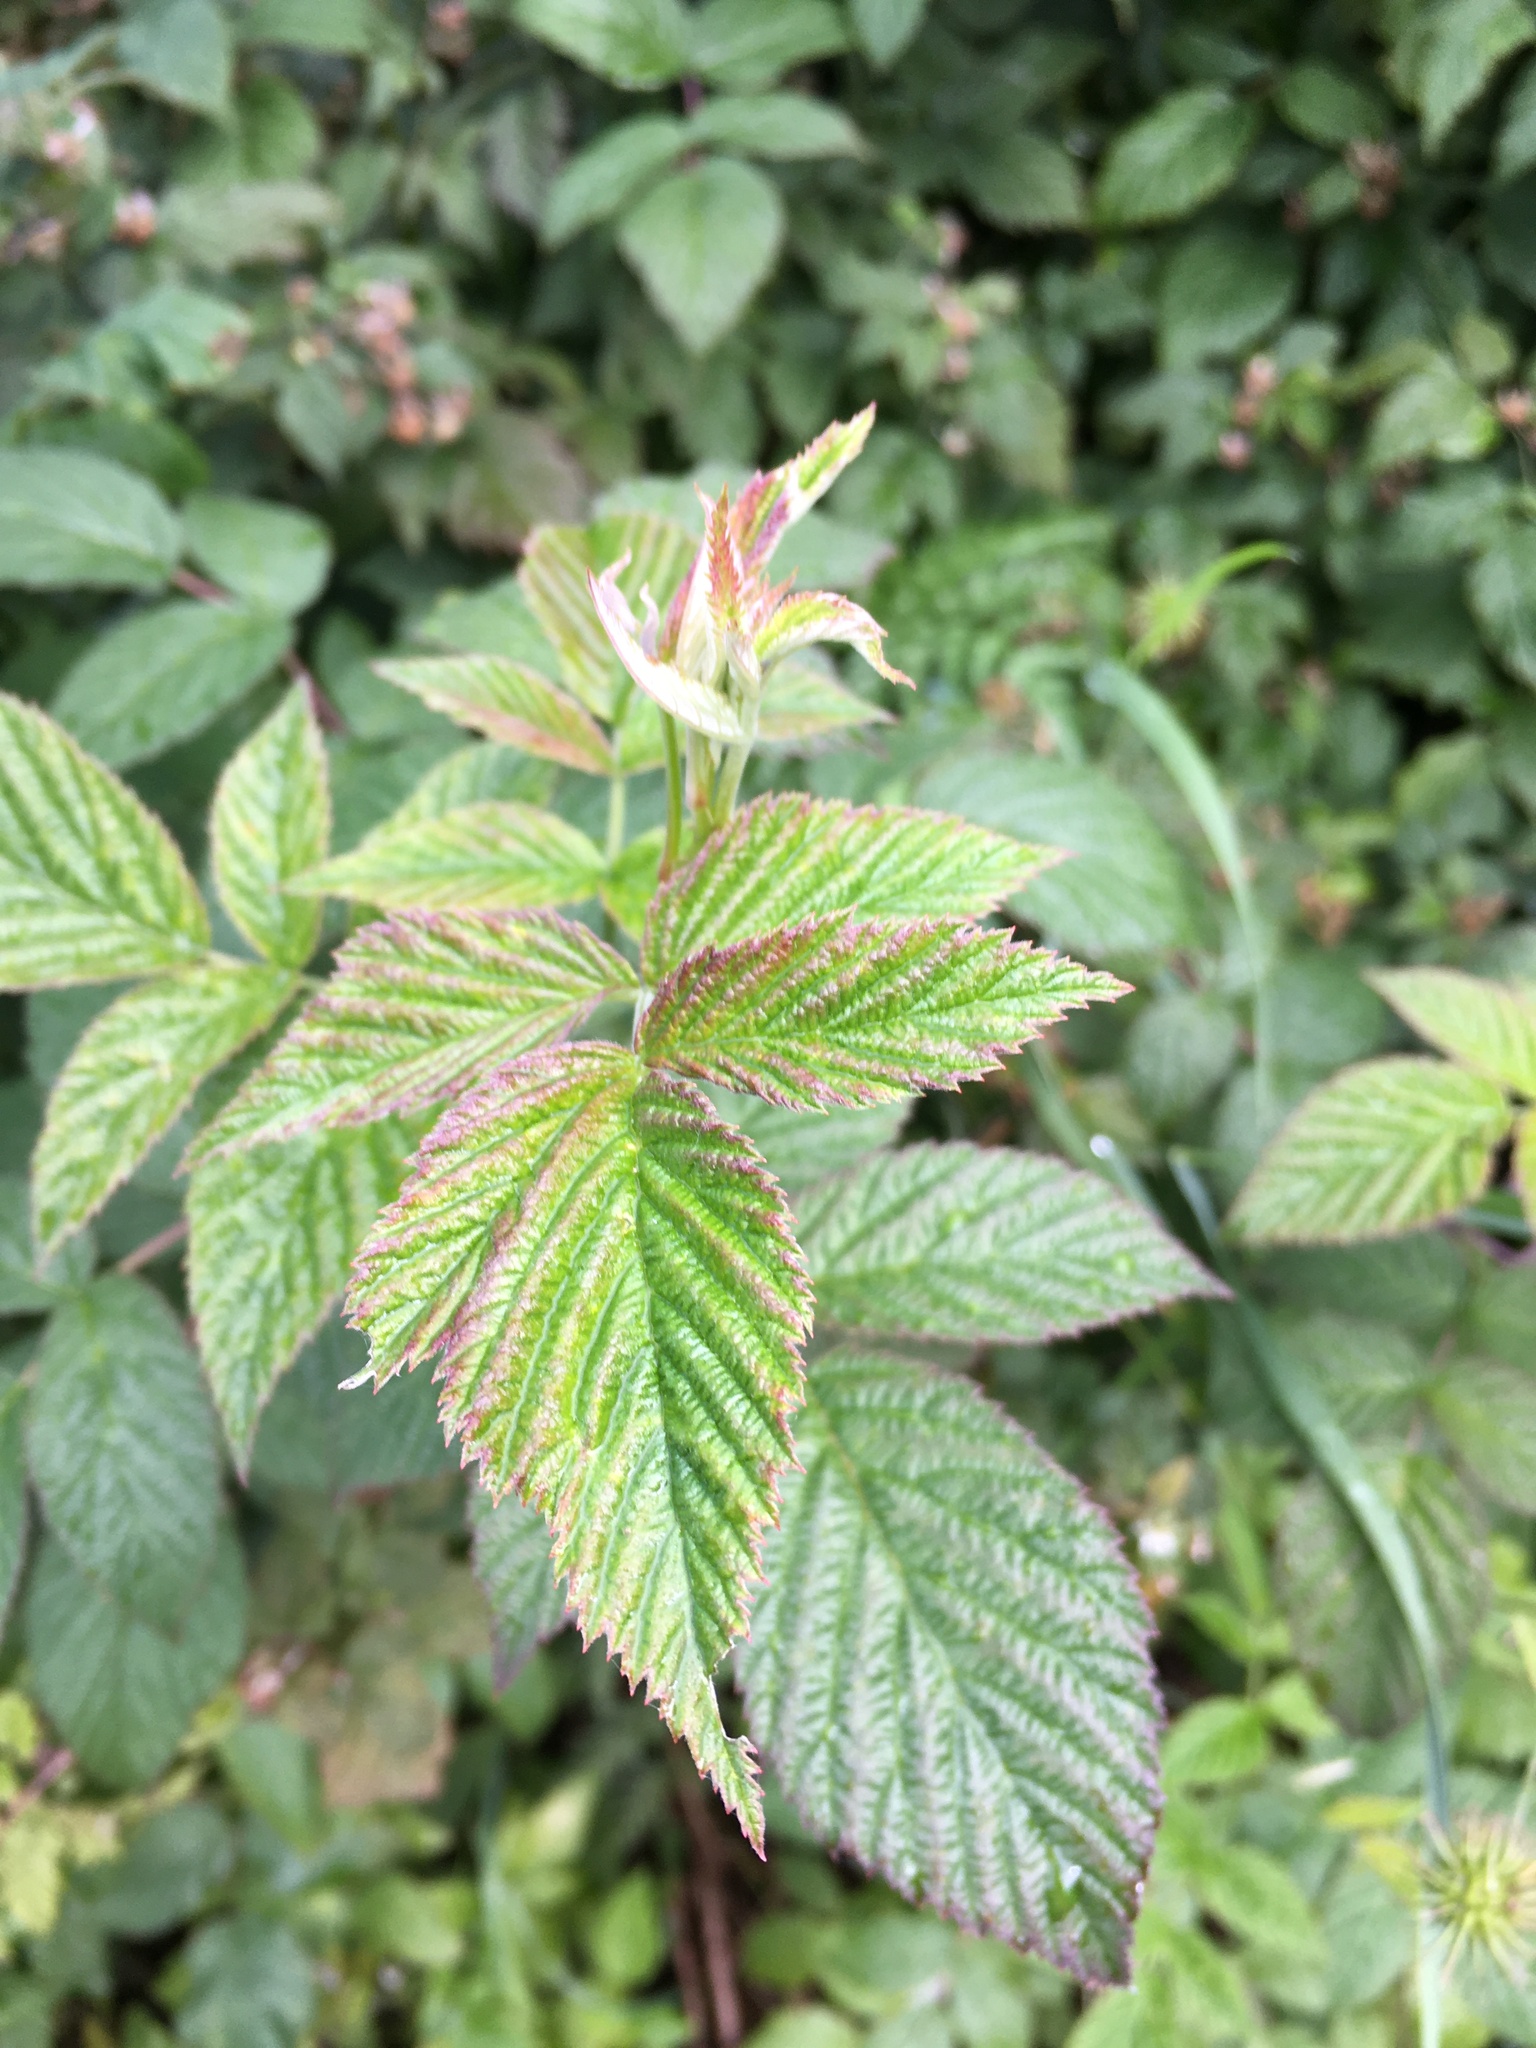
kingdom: Plantae
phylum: Tracheophyta
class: Magnoliopsida
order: Rosales
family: Rosaceae
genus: Rubus
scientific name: Rubus idaeus
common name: Raspberry
